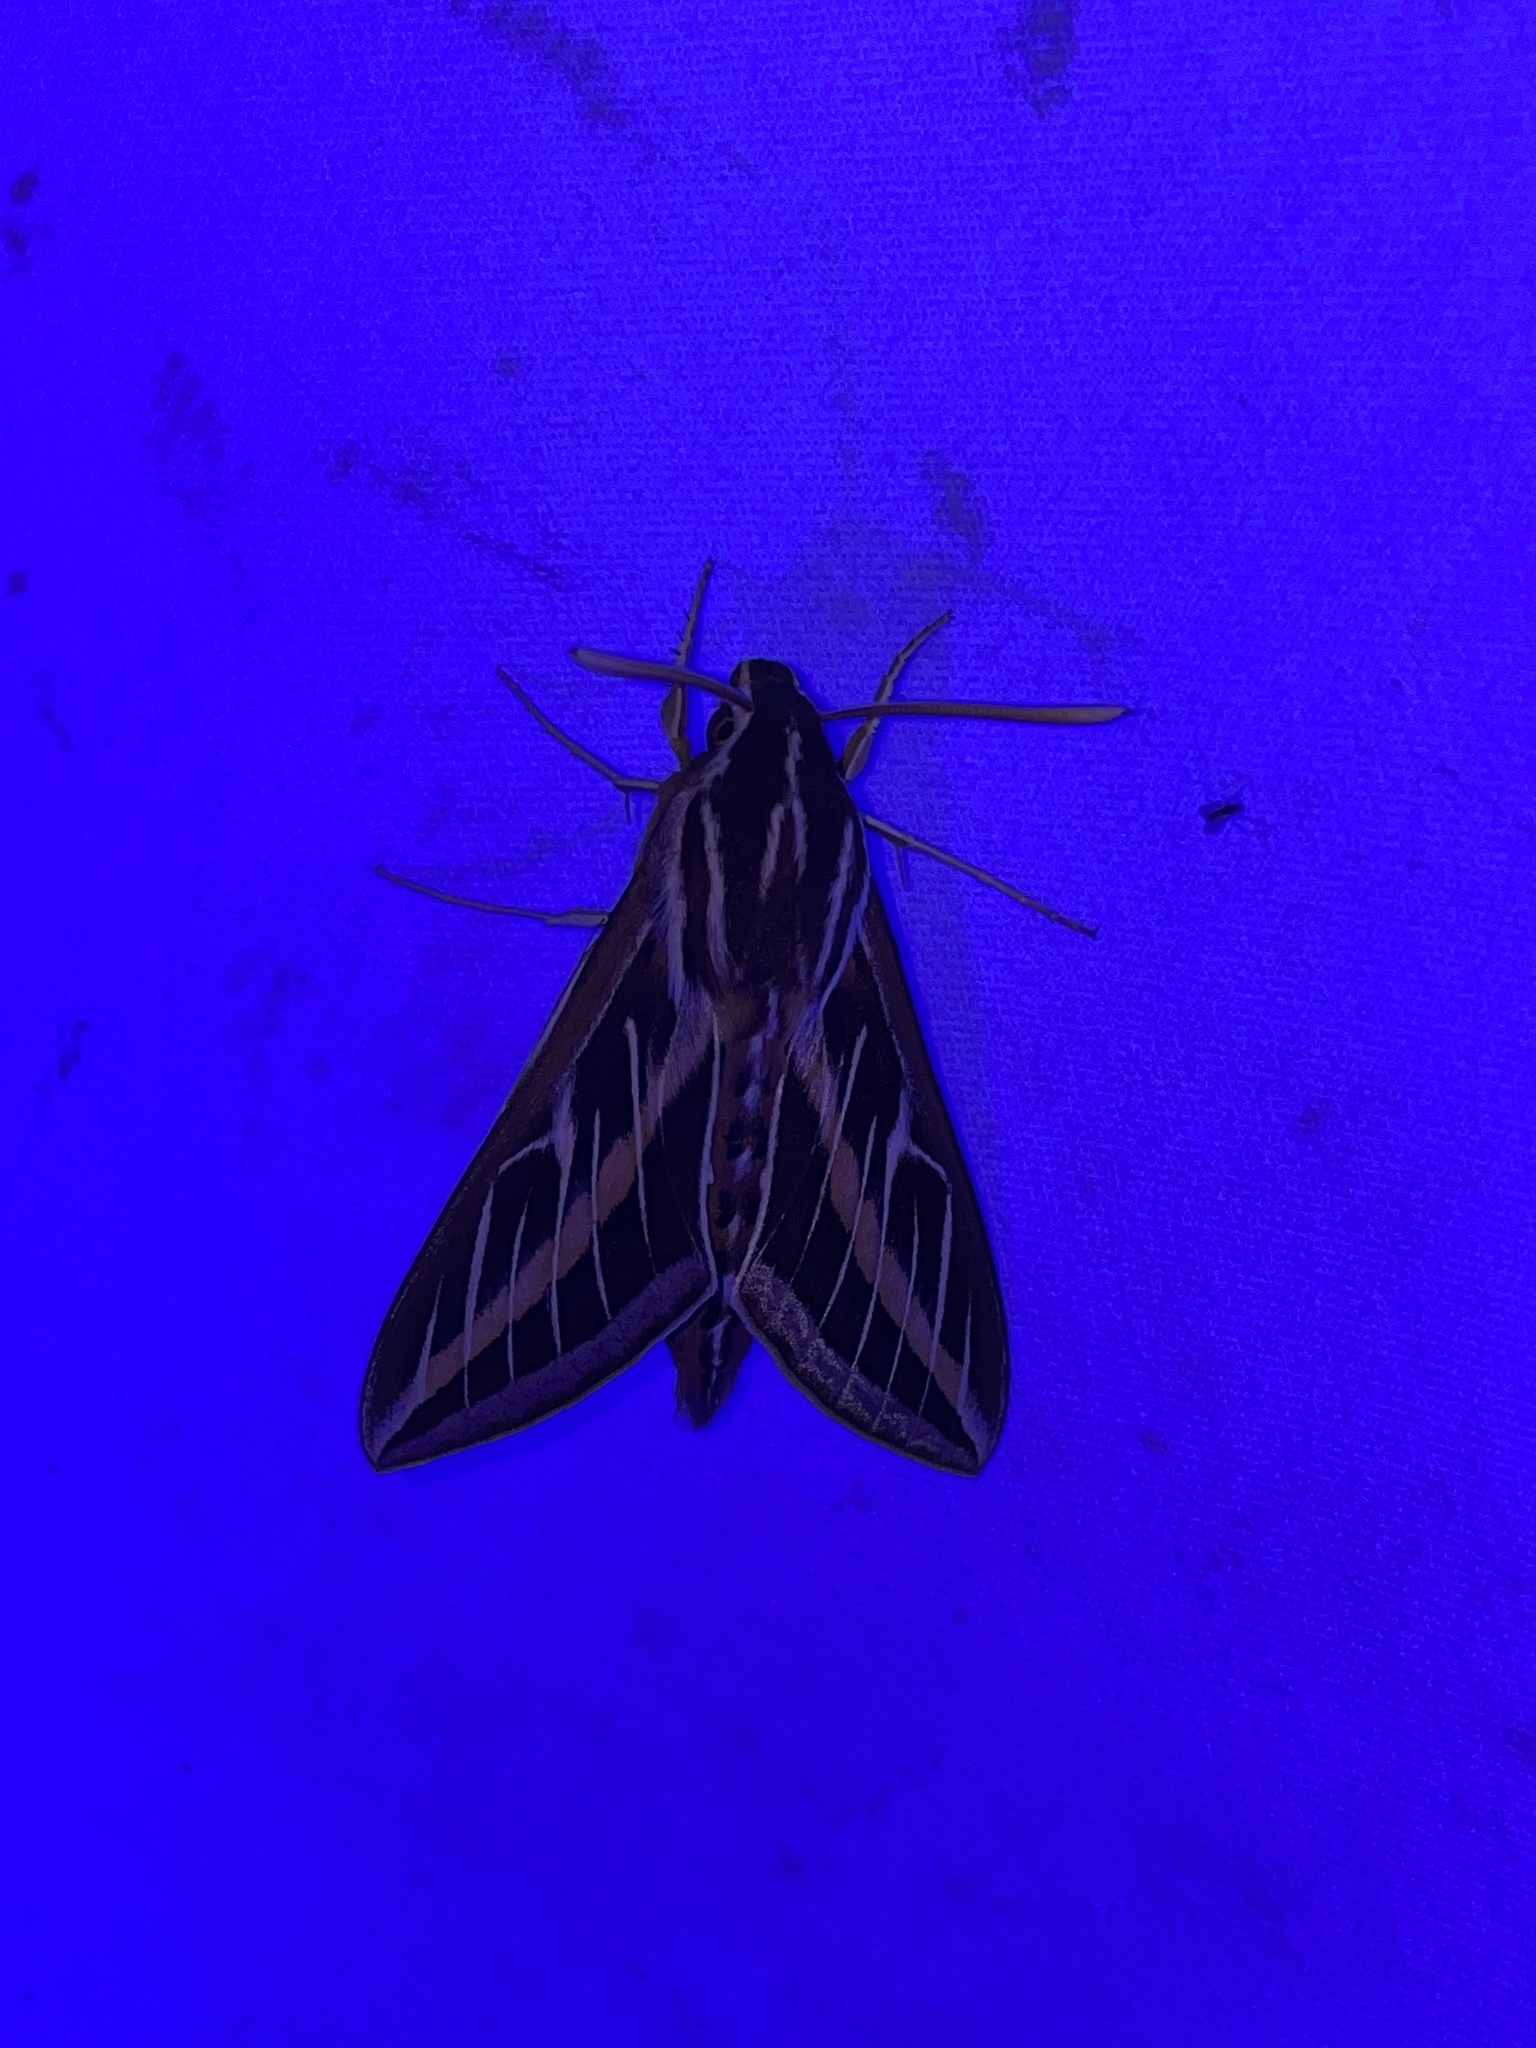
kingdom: Animalia
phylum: Arthropoda
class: Insecta
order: Lepidoptera
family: Sphingidae
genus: Hyles
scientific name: Hyles lineata
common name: White-lined sphinx
